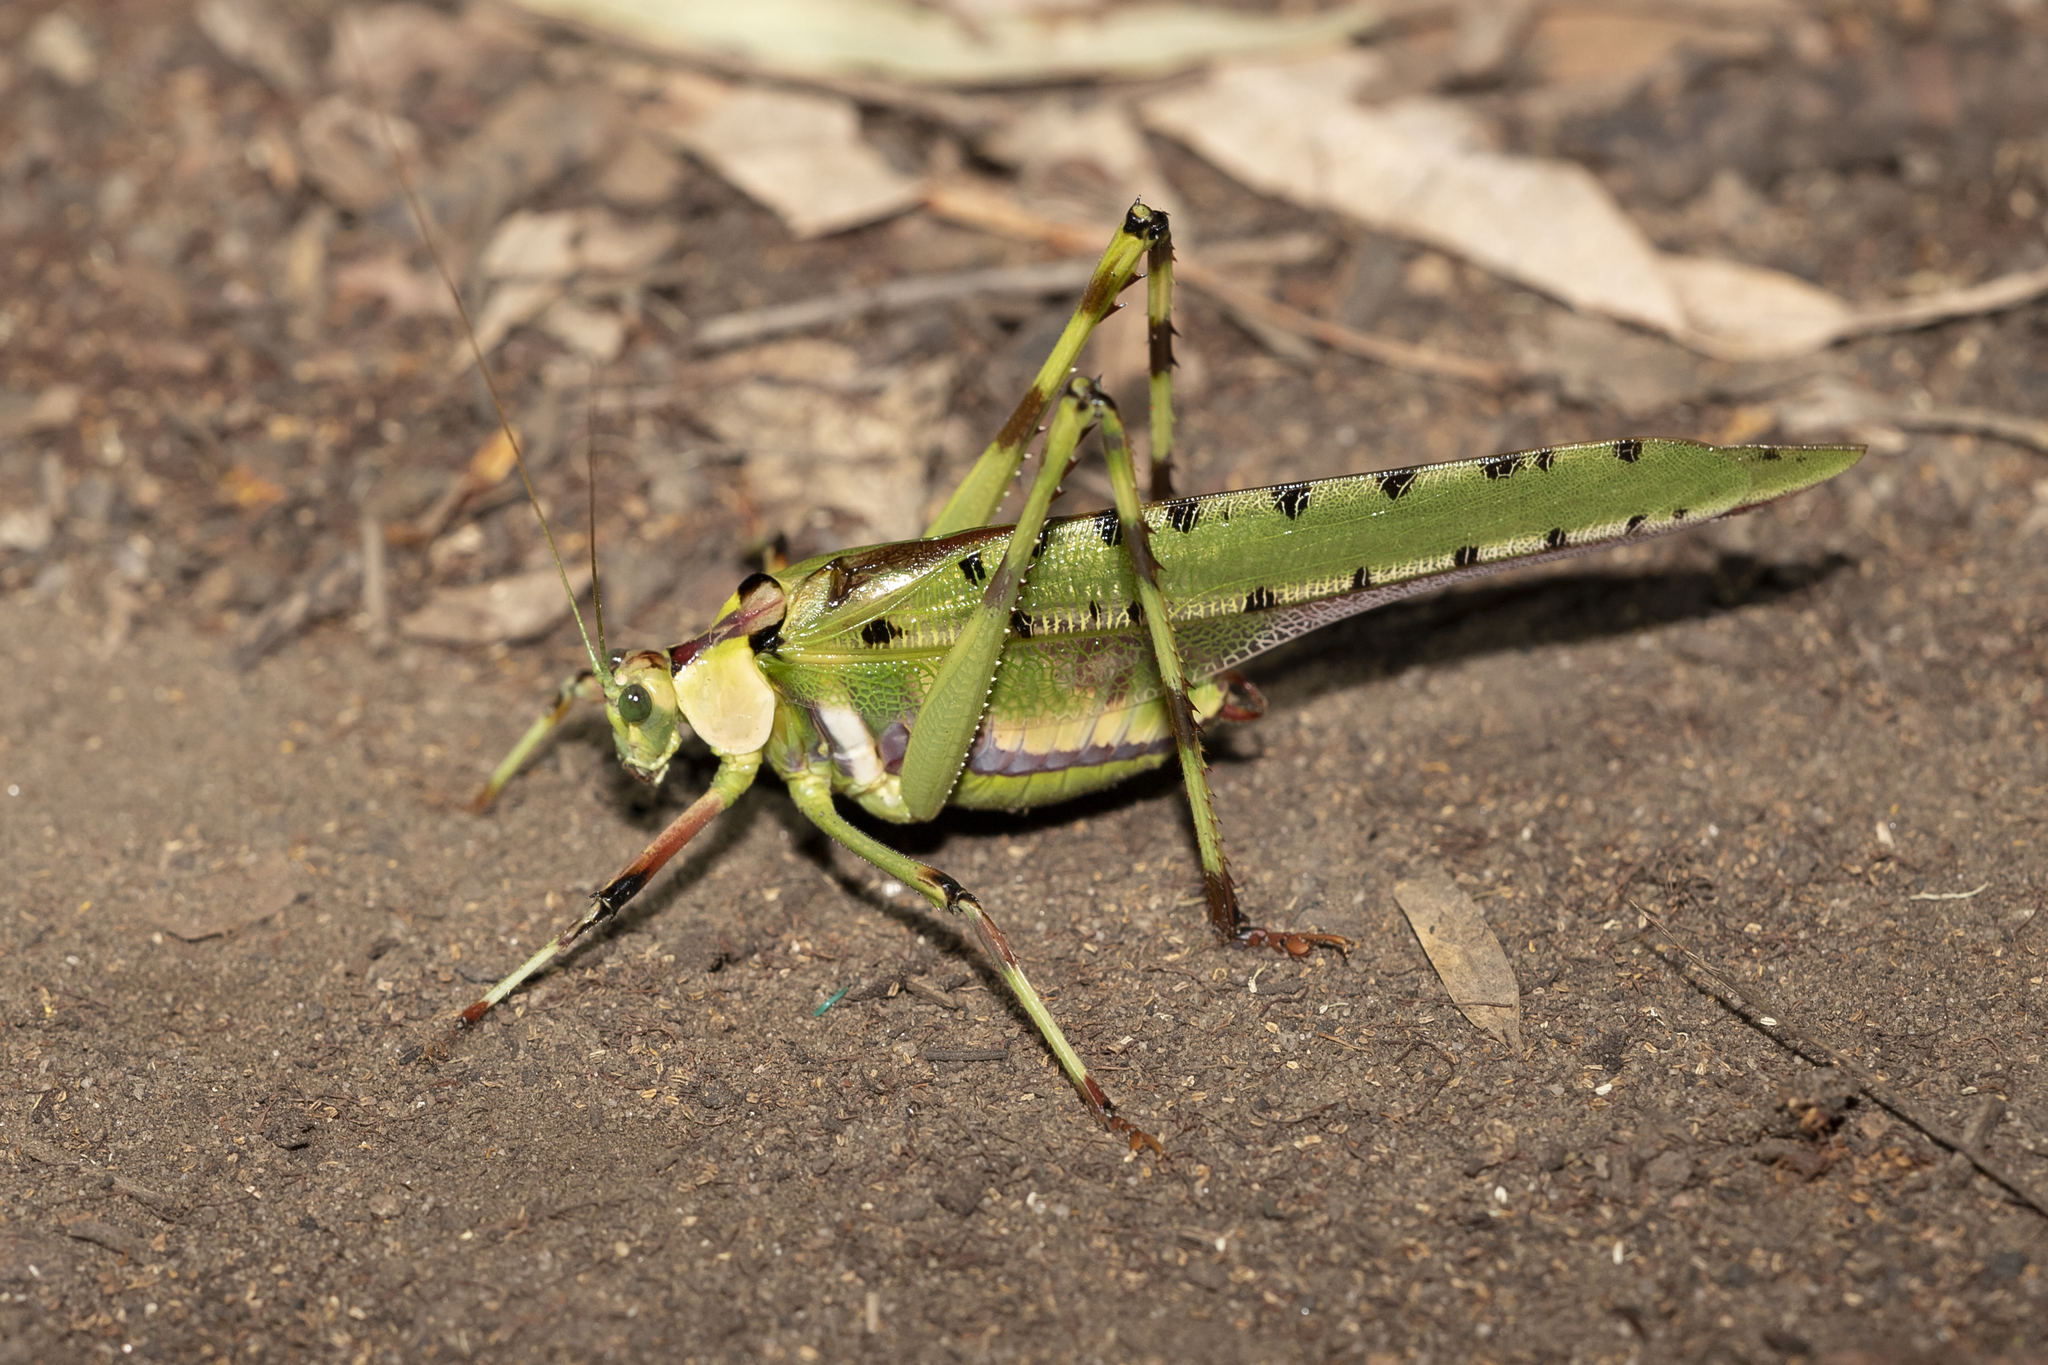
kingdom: Animalia
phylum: Arthropoda
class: Insecta
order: Orthoptera
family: Tettigoniidae
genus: Ephippitytha
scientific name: Ephippitytha froggatti
